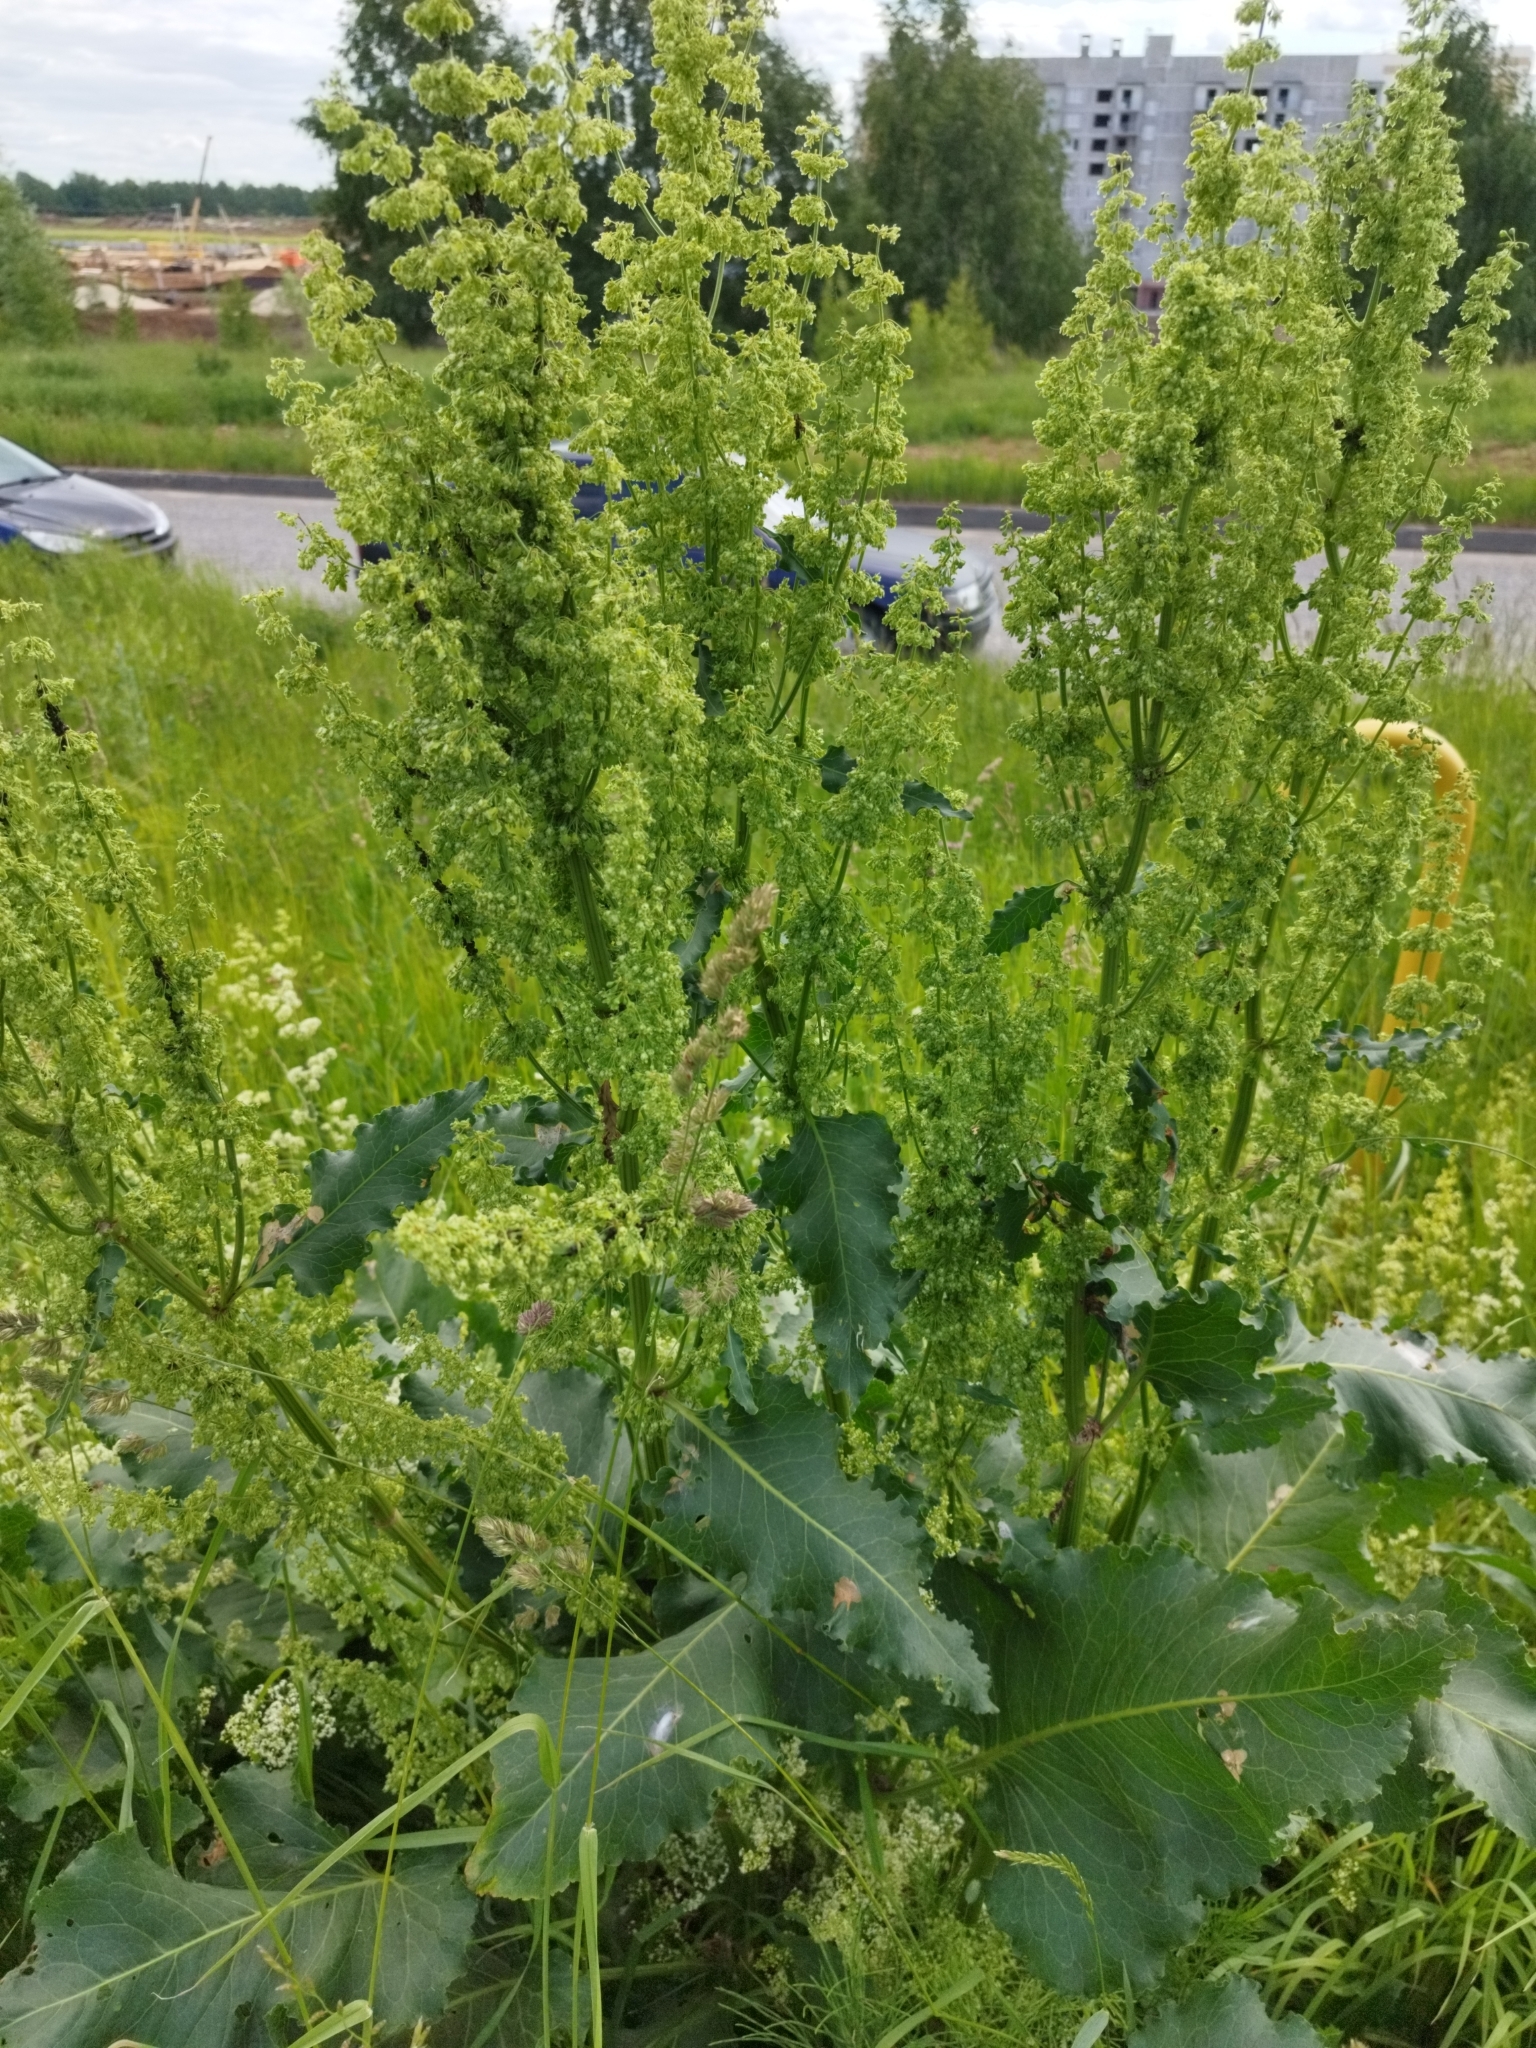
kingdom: Plantae
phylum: Tracheophyta
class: Magnoliopsida
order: Caryophyllales
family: Polygonaceae
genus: Rumex
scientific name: Rumex confertus
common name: Russian dock
